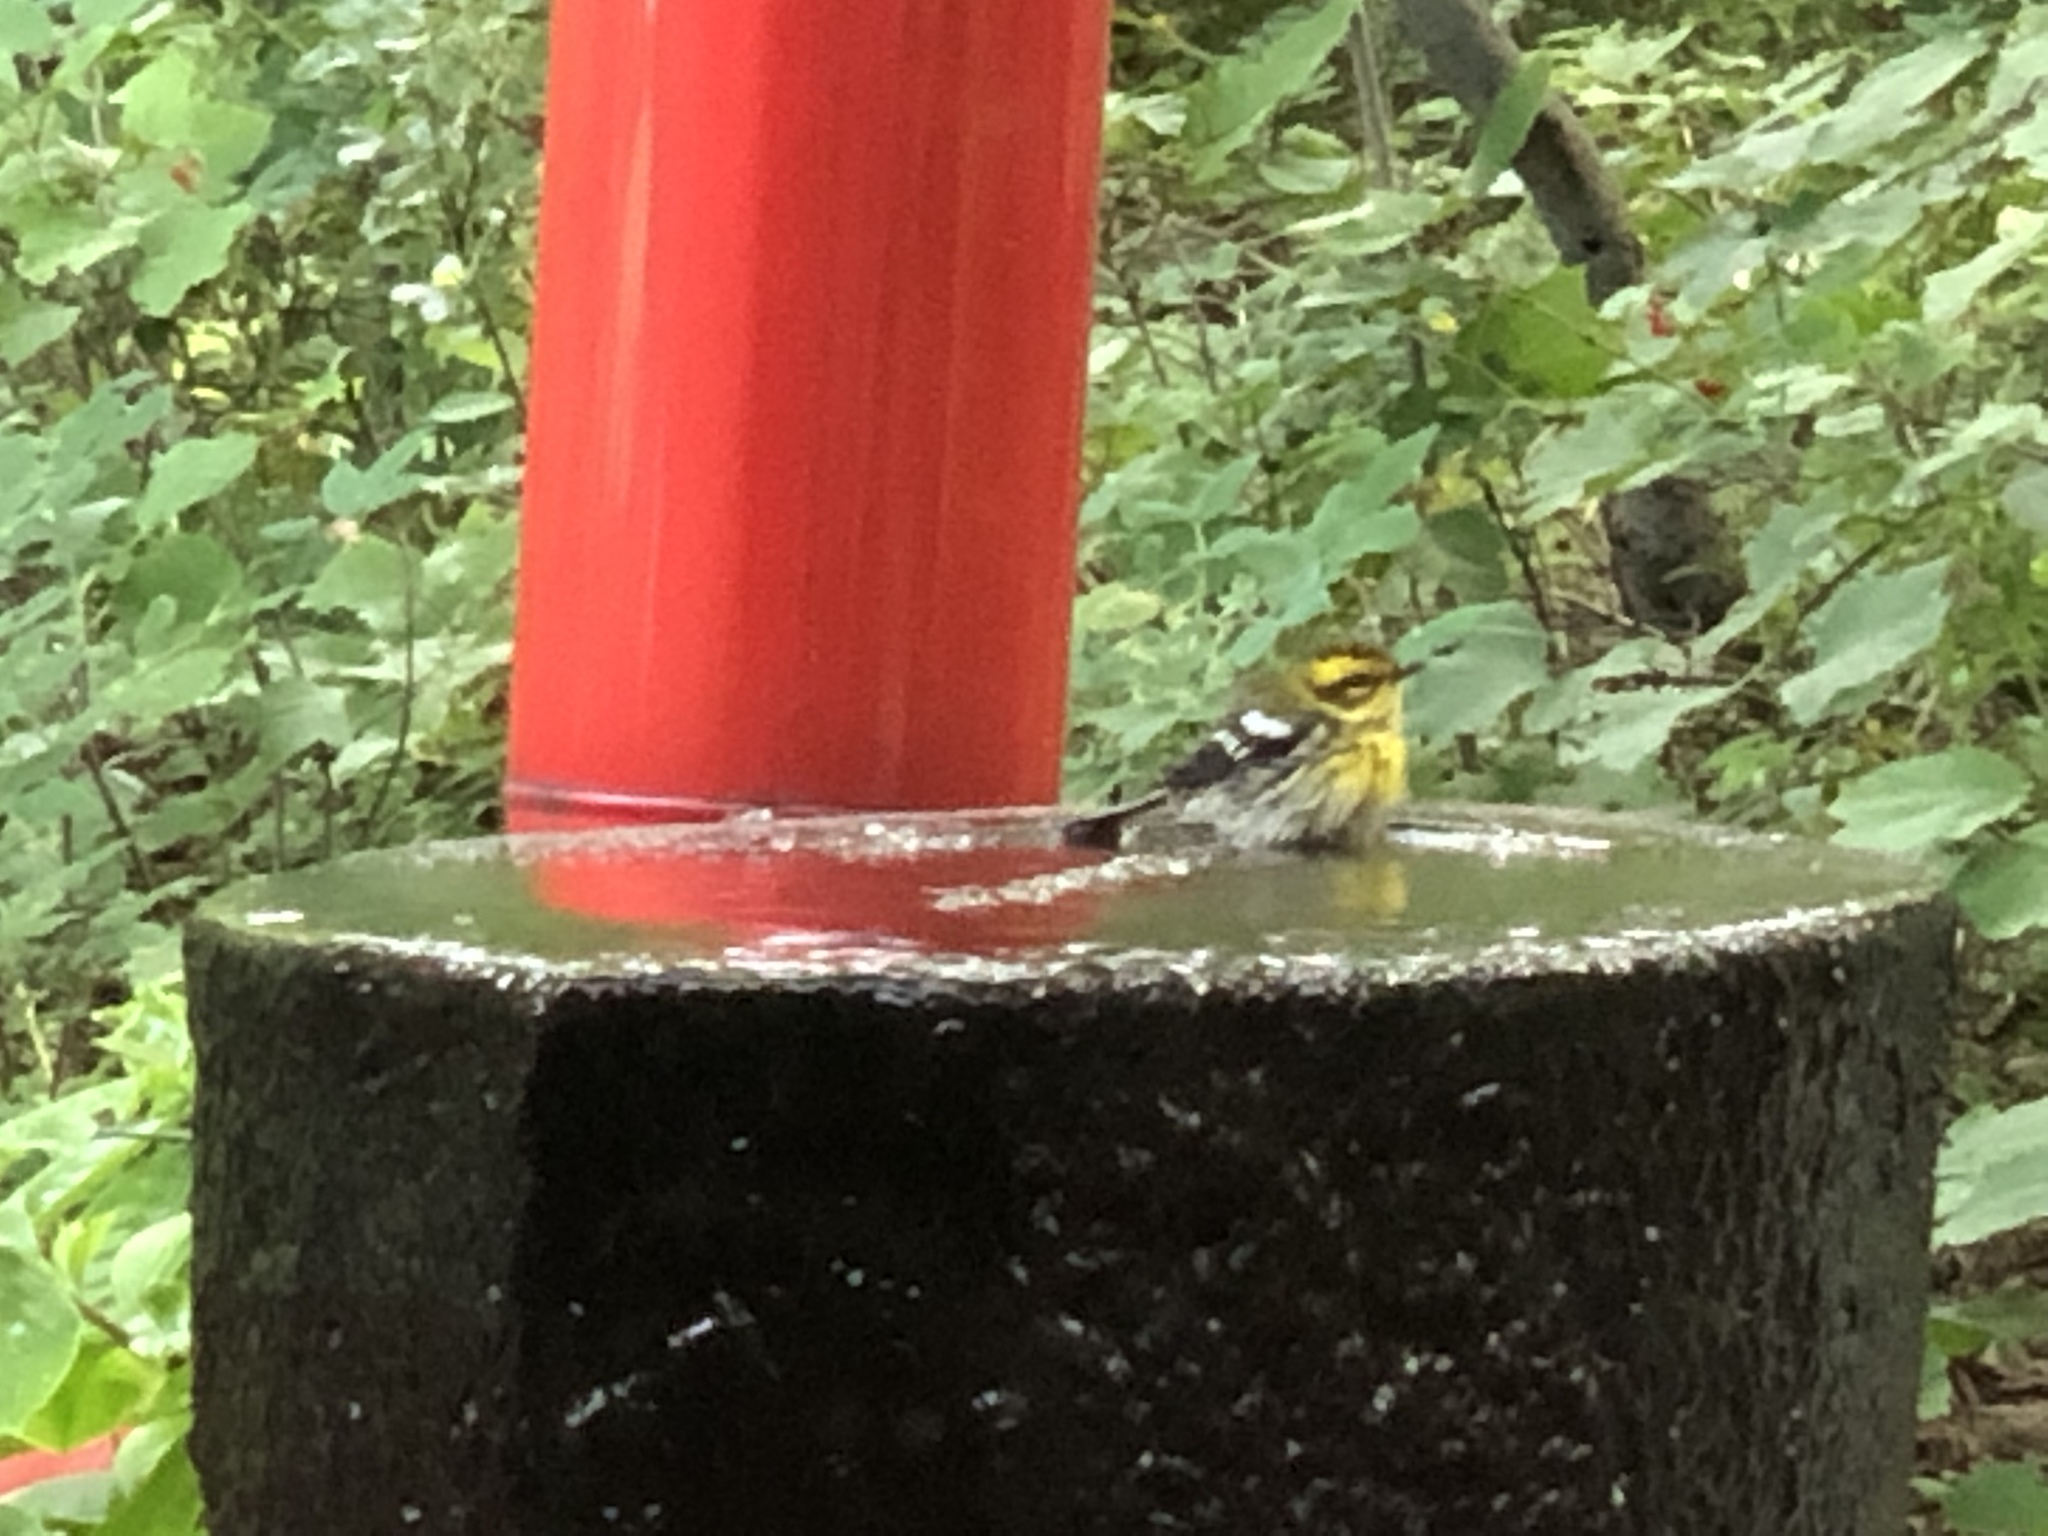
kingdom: Animalia
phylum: Chordata
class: Aves
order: Passeriformes
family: Parulidae
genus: Setophaga
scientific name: Setophaga townsendi
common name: Townsend's warbler
